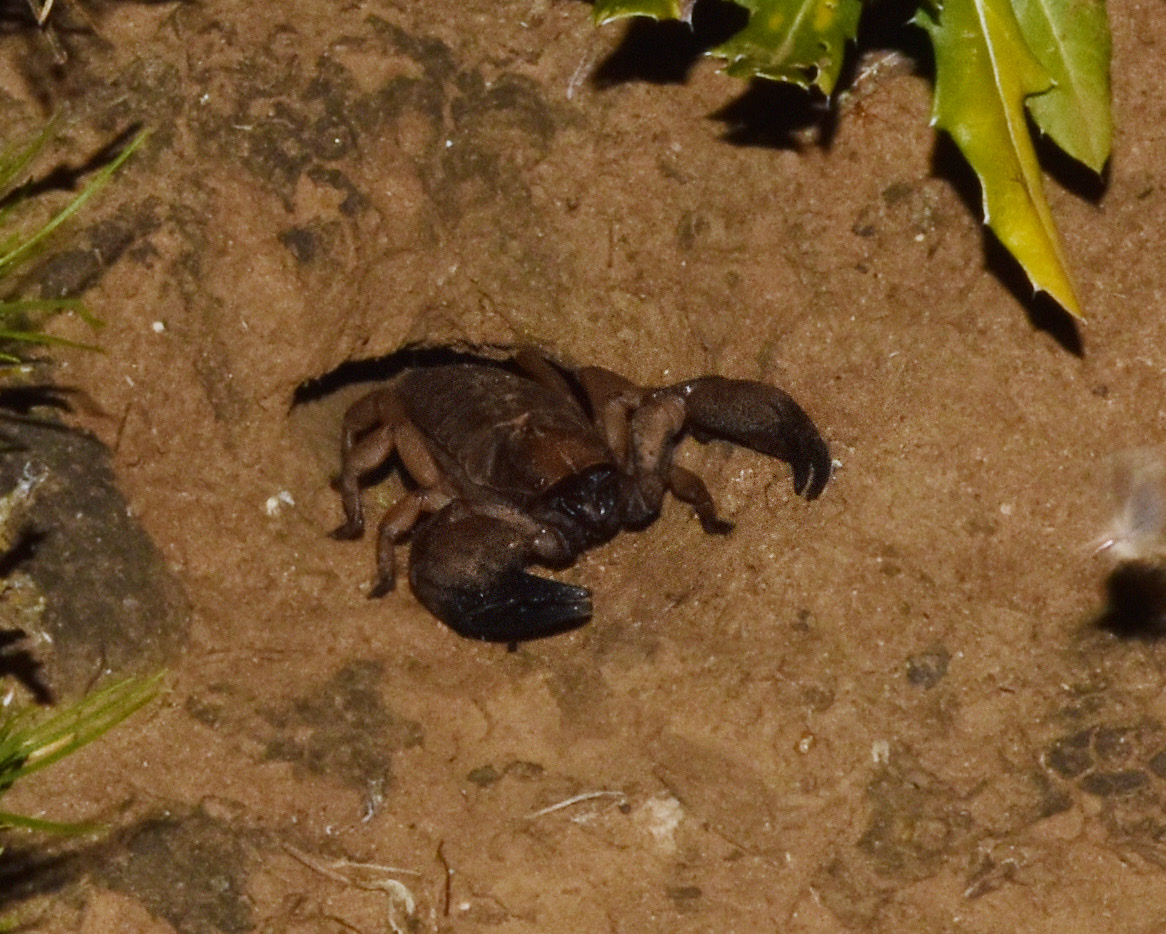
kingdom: Animalia
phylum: Arthropoda
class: Arachnida
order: Scorpiones
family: Scorpionidae
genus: Opistophthalmus
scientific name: Opistophthalmus praedo
